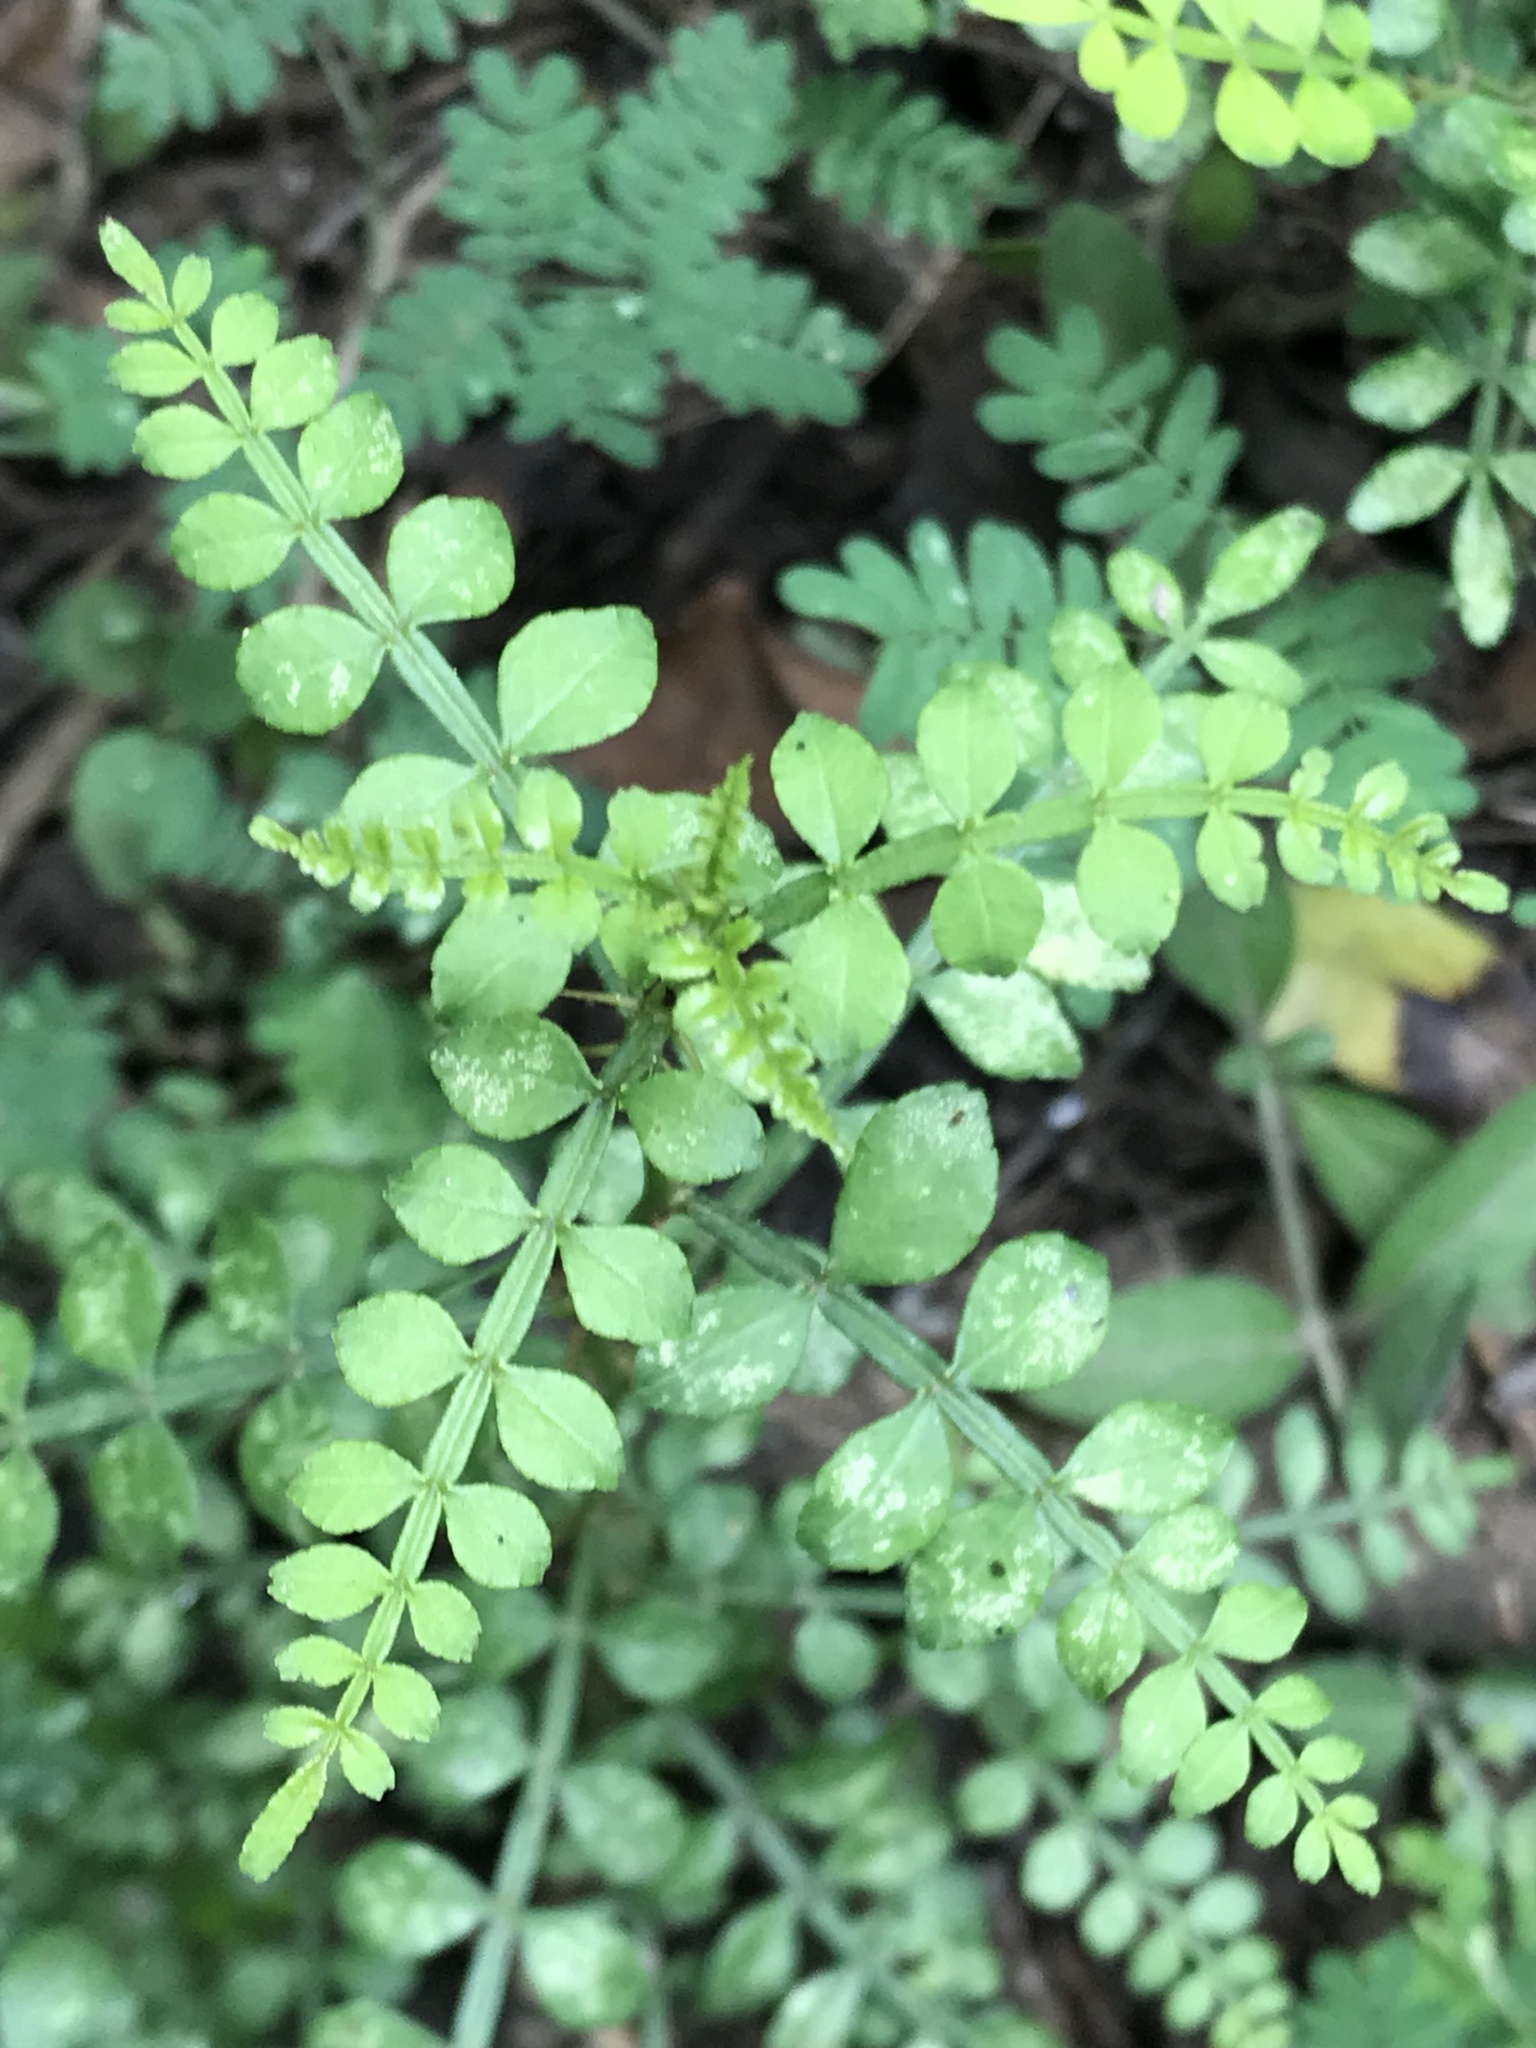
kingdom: Plantae
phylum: Tracheophyta
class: Magnoliopsida
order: Sapindales
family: Rutaceae
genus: Zanthoxylum
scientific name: Zanthoxylum fagara
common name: Lime prickly-ash
